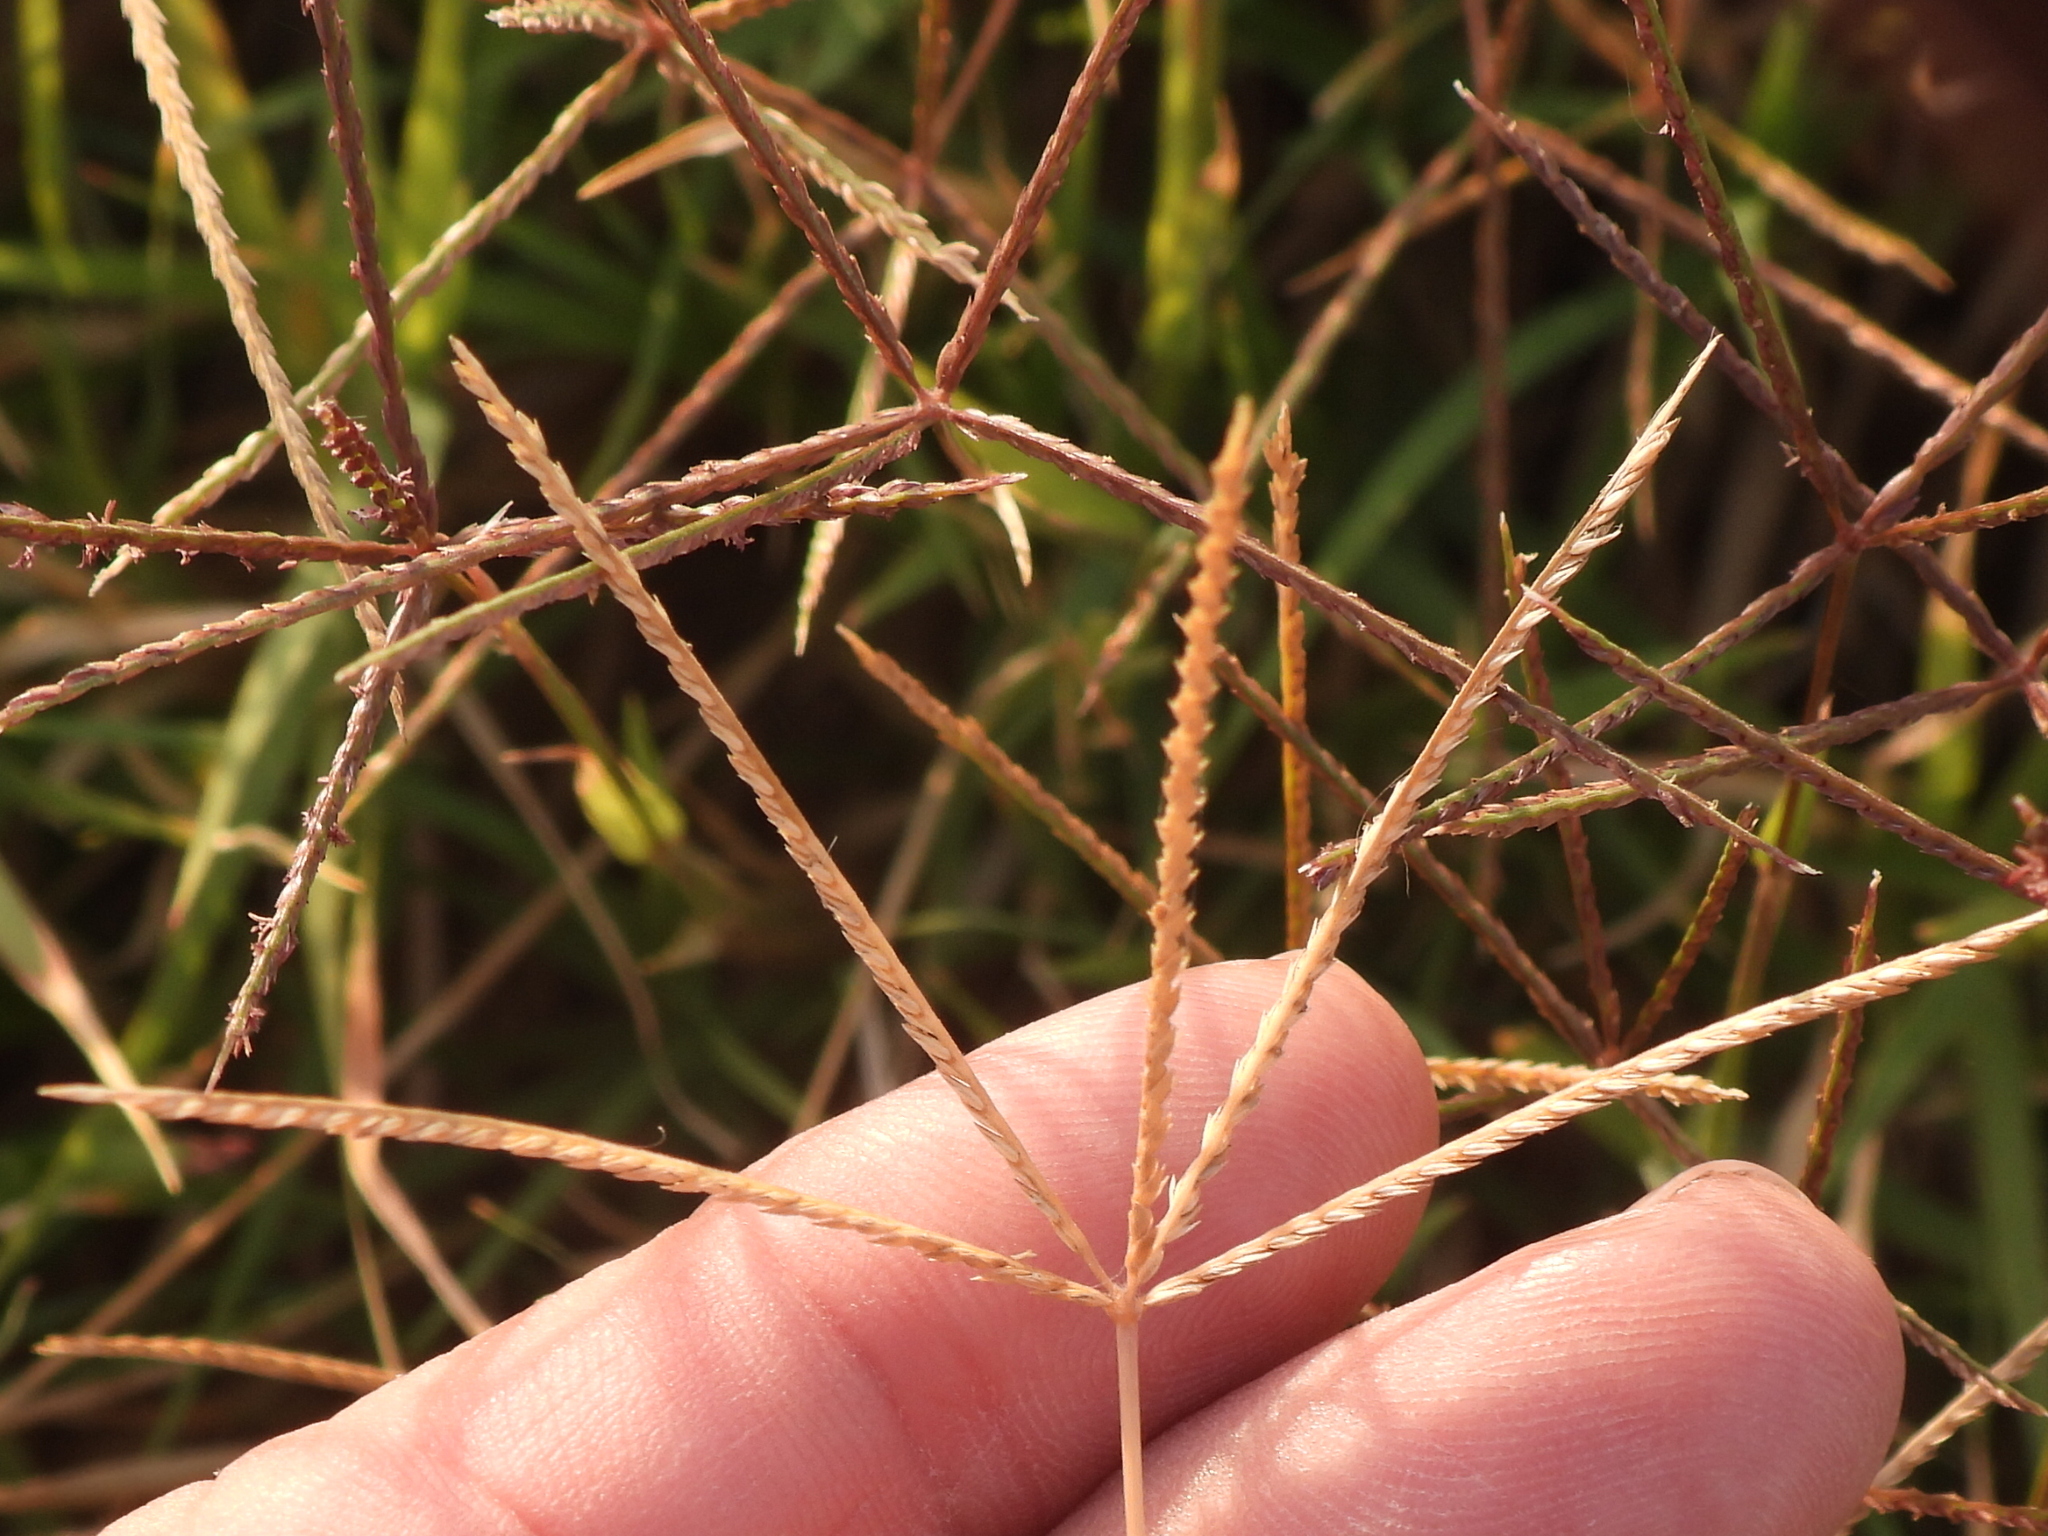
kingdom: Plantae
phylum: Tracheophyta
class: Liliopsida
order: Poales
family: Poaceae
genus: Cynodon
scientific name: Cynodon dactylon
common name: Bermuda grass
